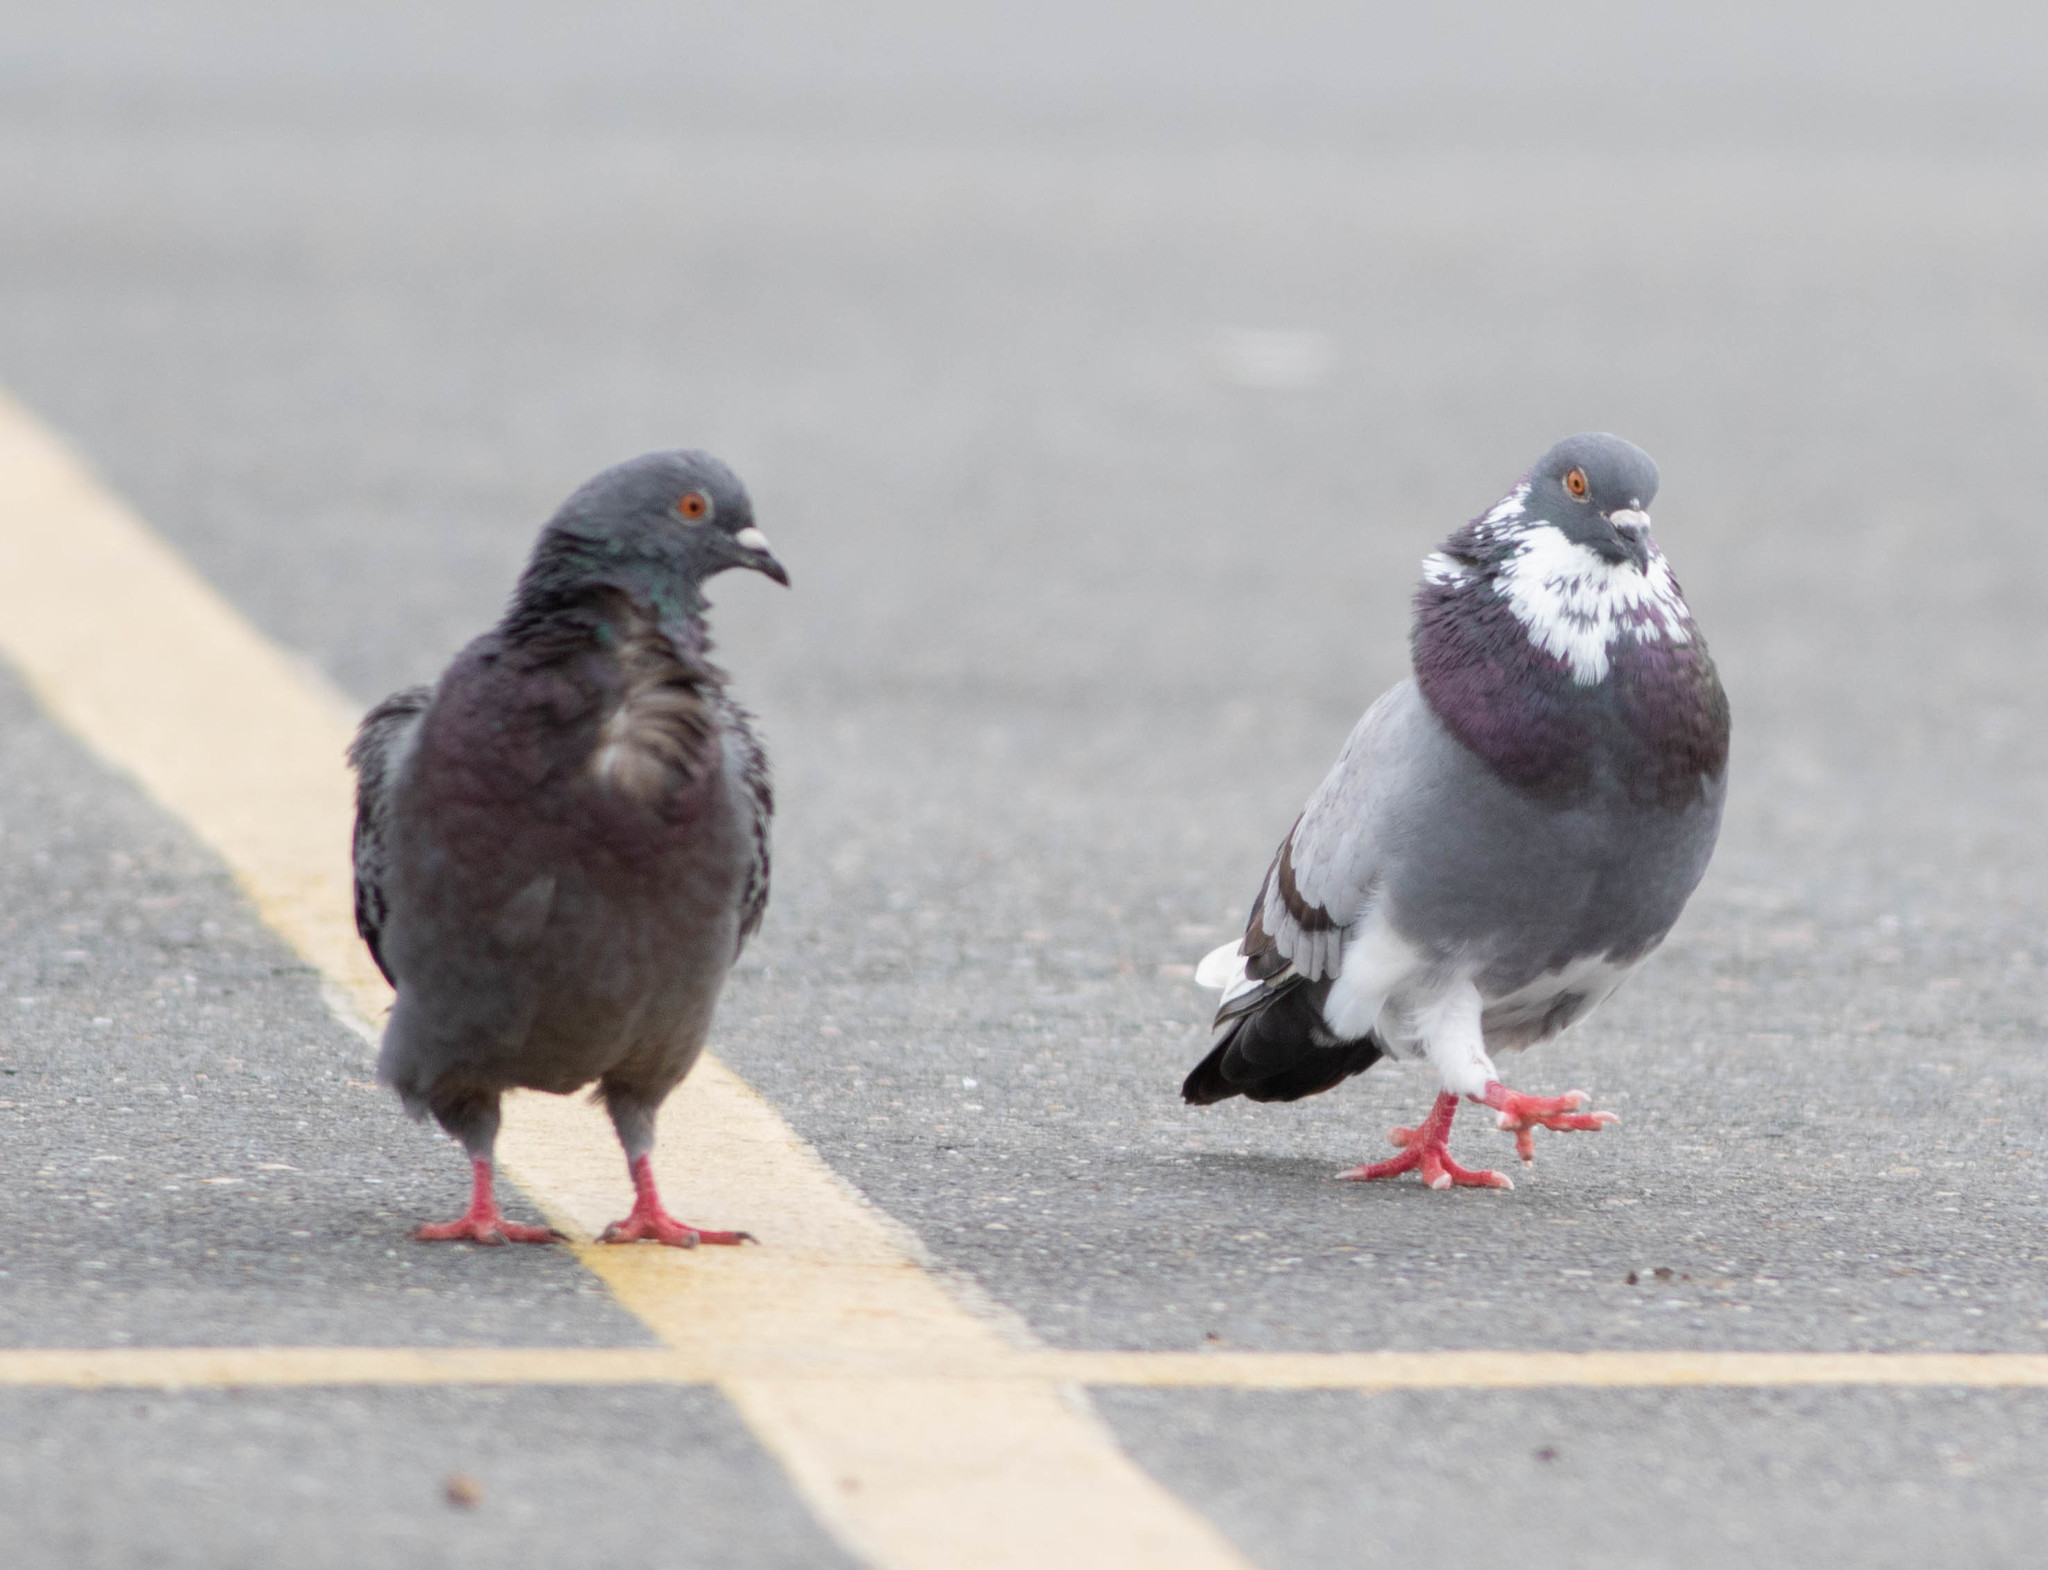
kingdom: Animalia
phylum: Chordata
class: Aves
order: Columbiformes
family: Columbidae
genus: Columba
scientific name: Columba livia
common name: Rock pigeon
